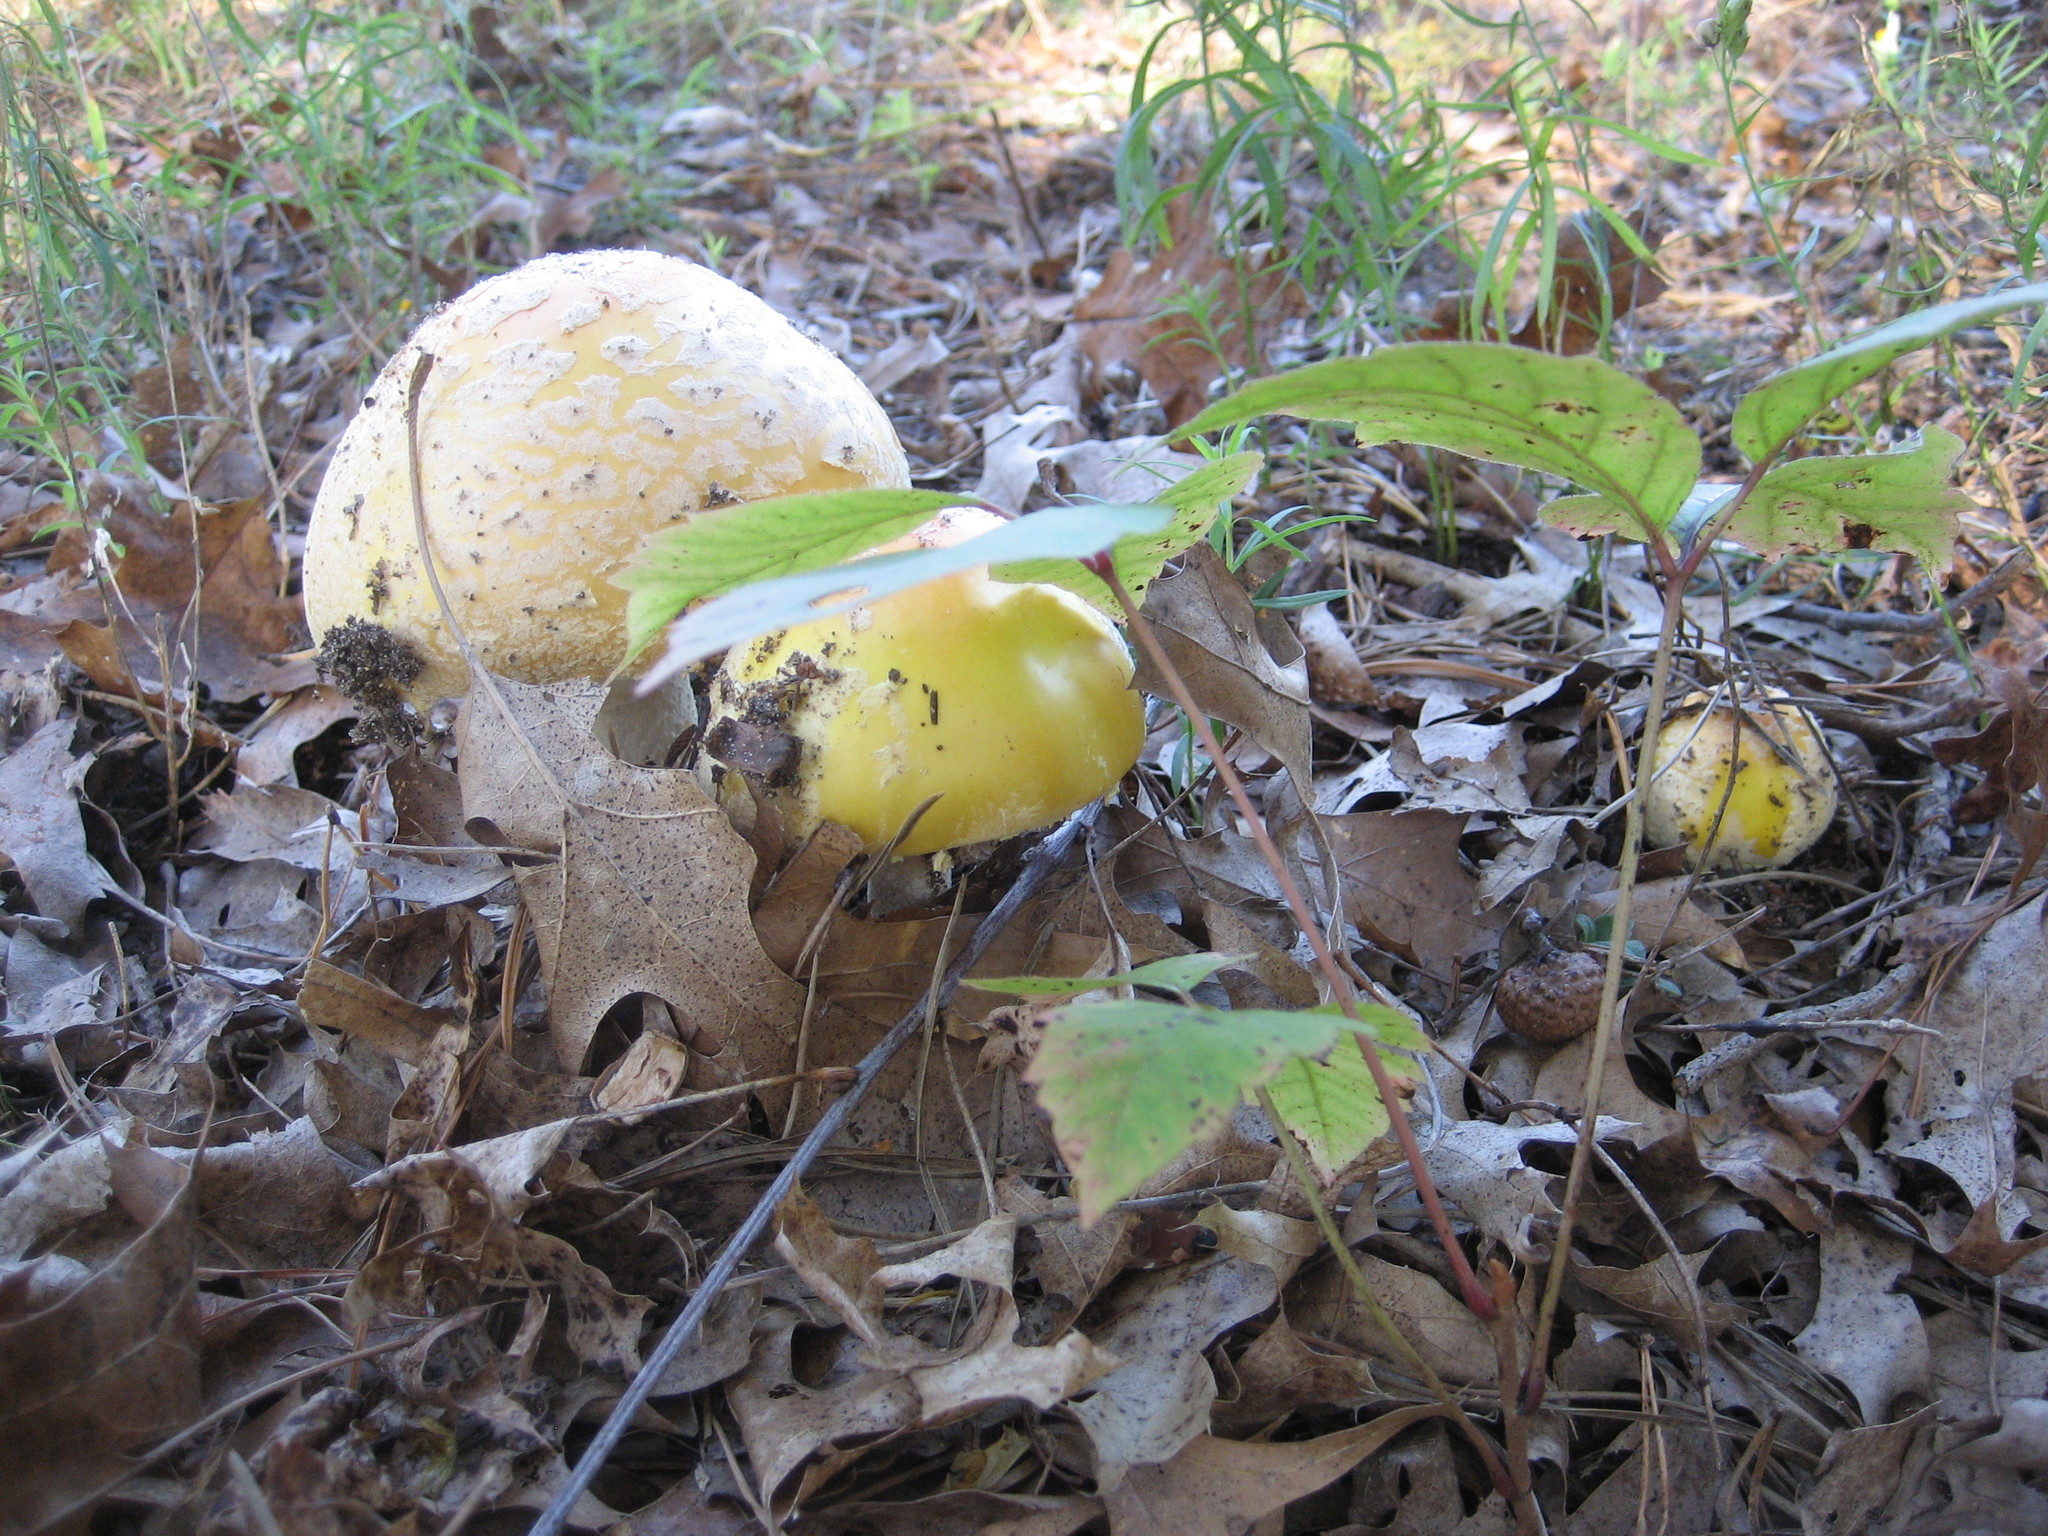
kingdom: Fungi
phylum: Basidiomycota
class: Agaricomycetes
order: Agaricales
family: Amanitaceae
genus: Amanita
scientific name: Amanita muscaria
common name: Fly agaric
